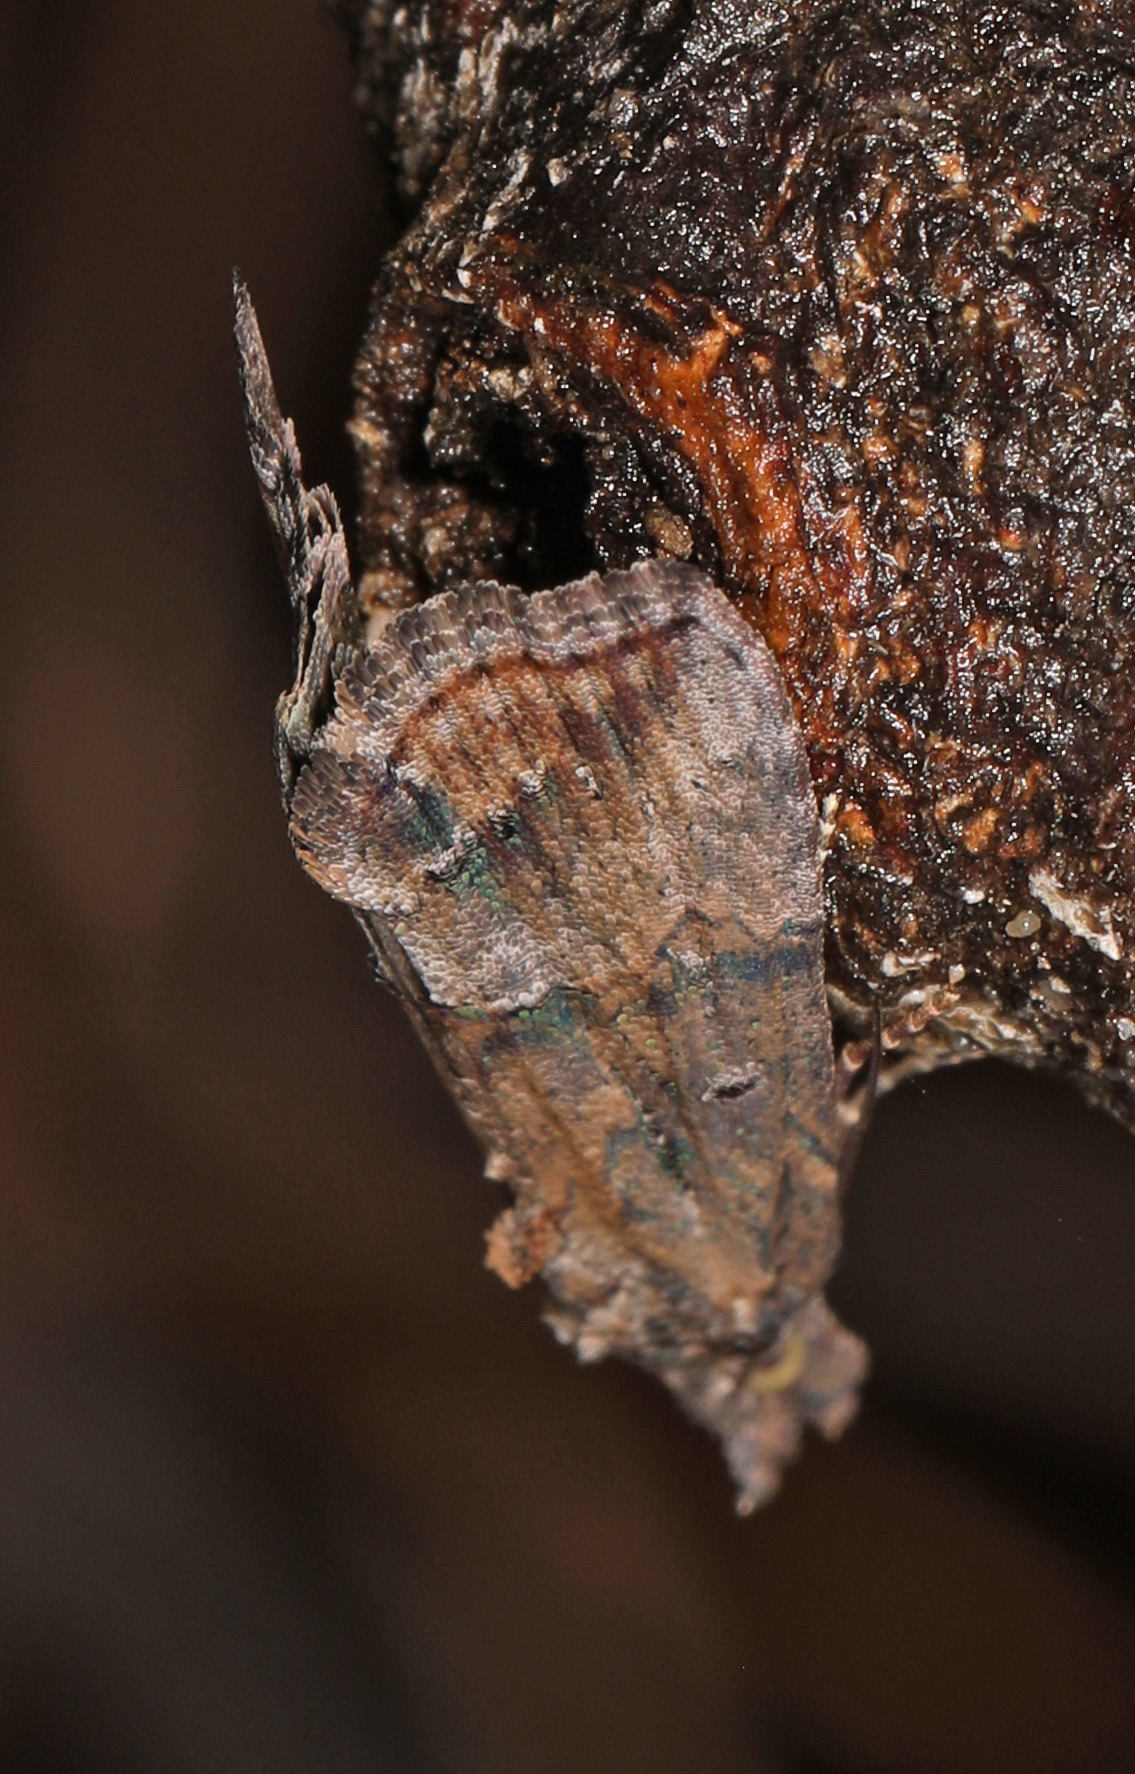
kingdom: Animalia
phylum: Arthropoda
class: Insecta
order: Lepidoptera
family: Erebidae
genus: Hypena
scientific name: Hypena scabra
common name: Green cloverworm
